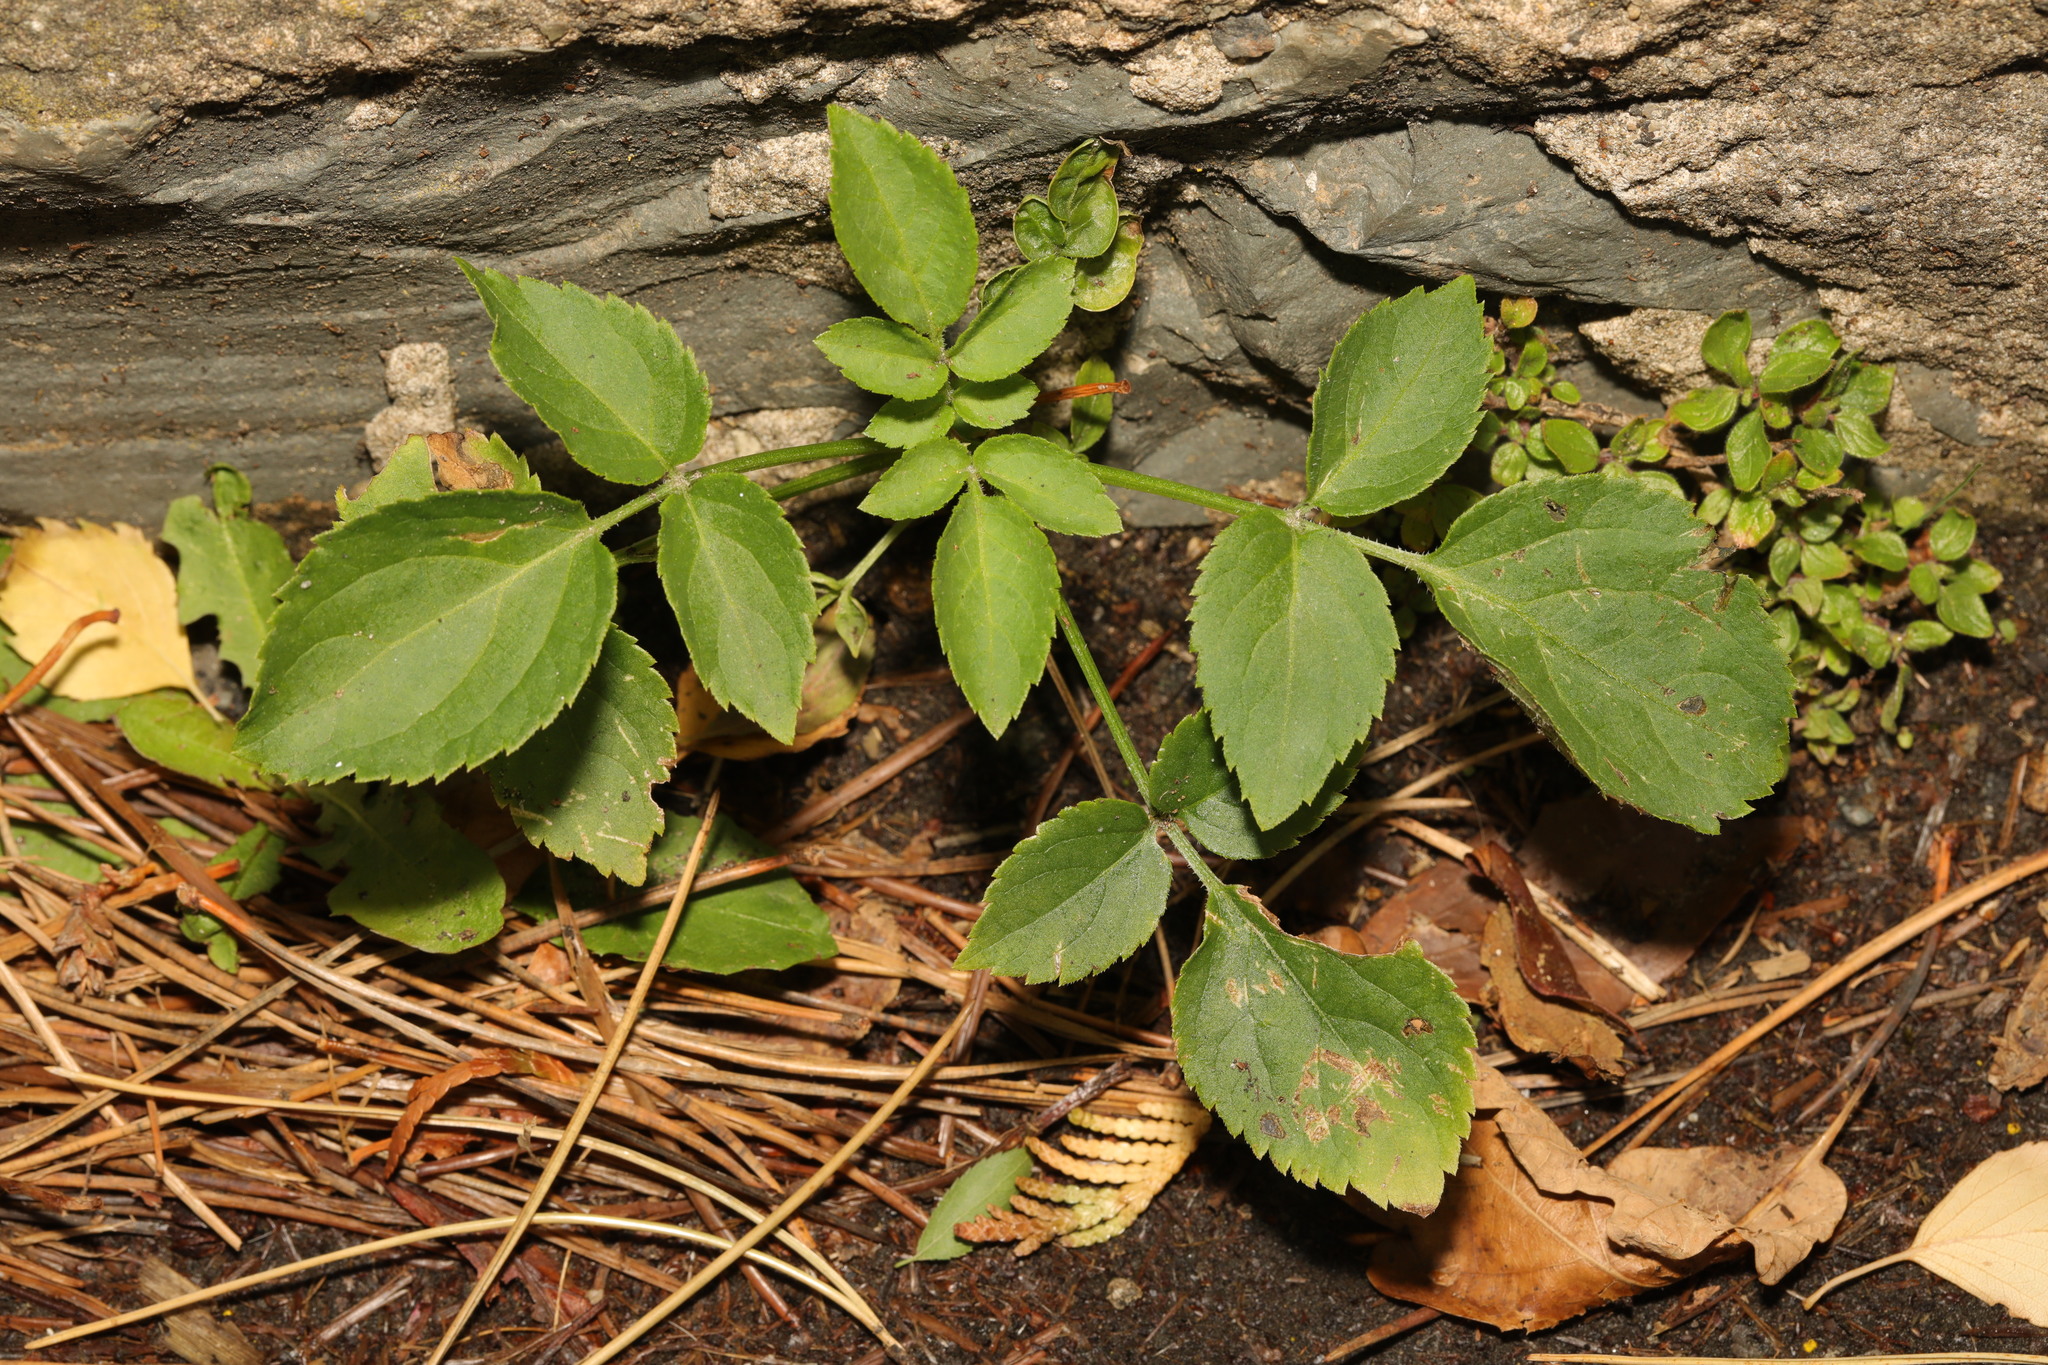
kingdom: Plantae
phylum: Tracheophyta
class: Magnoliopsida
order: Dipsacales
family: Viburnaceae
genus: Sambucus
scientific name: Sambucus nigra
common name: Elder
